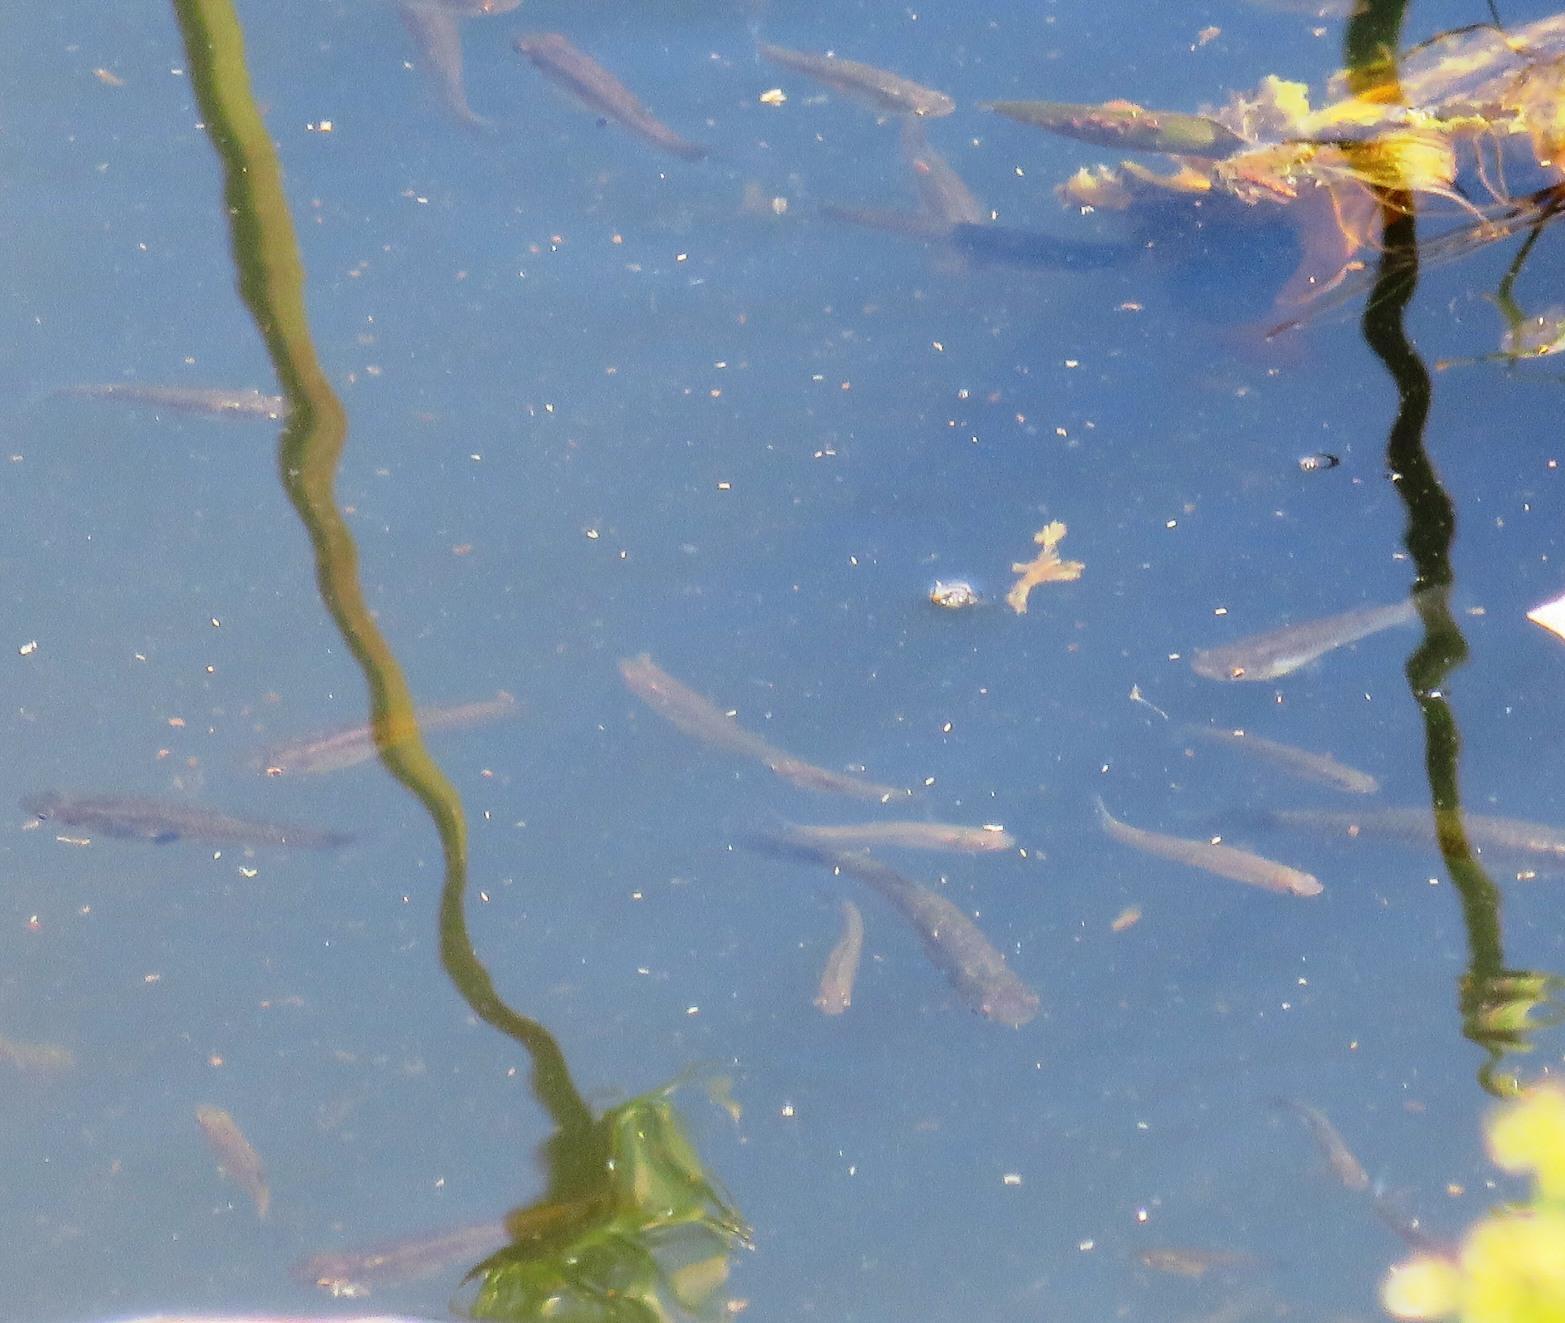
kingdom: Animalia
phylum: Chordata
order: Cyprinodontiformes
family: Poeciliidae
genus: Gambusia
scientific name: Gambusia affinis
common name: Mosquitofish
